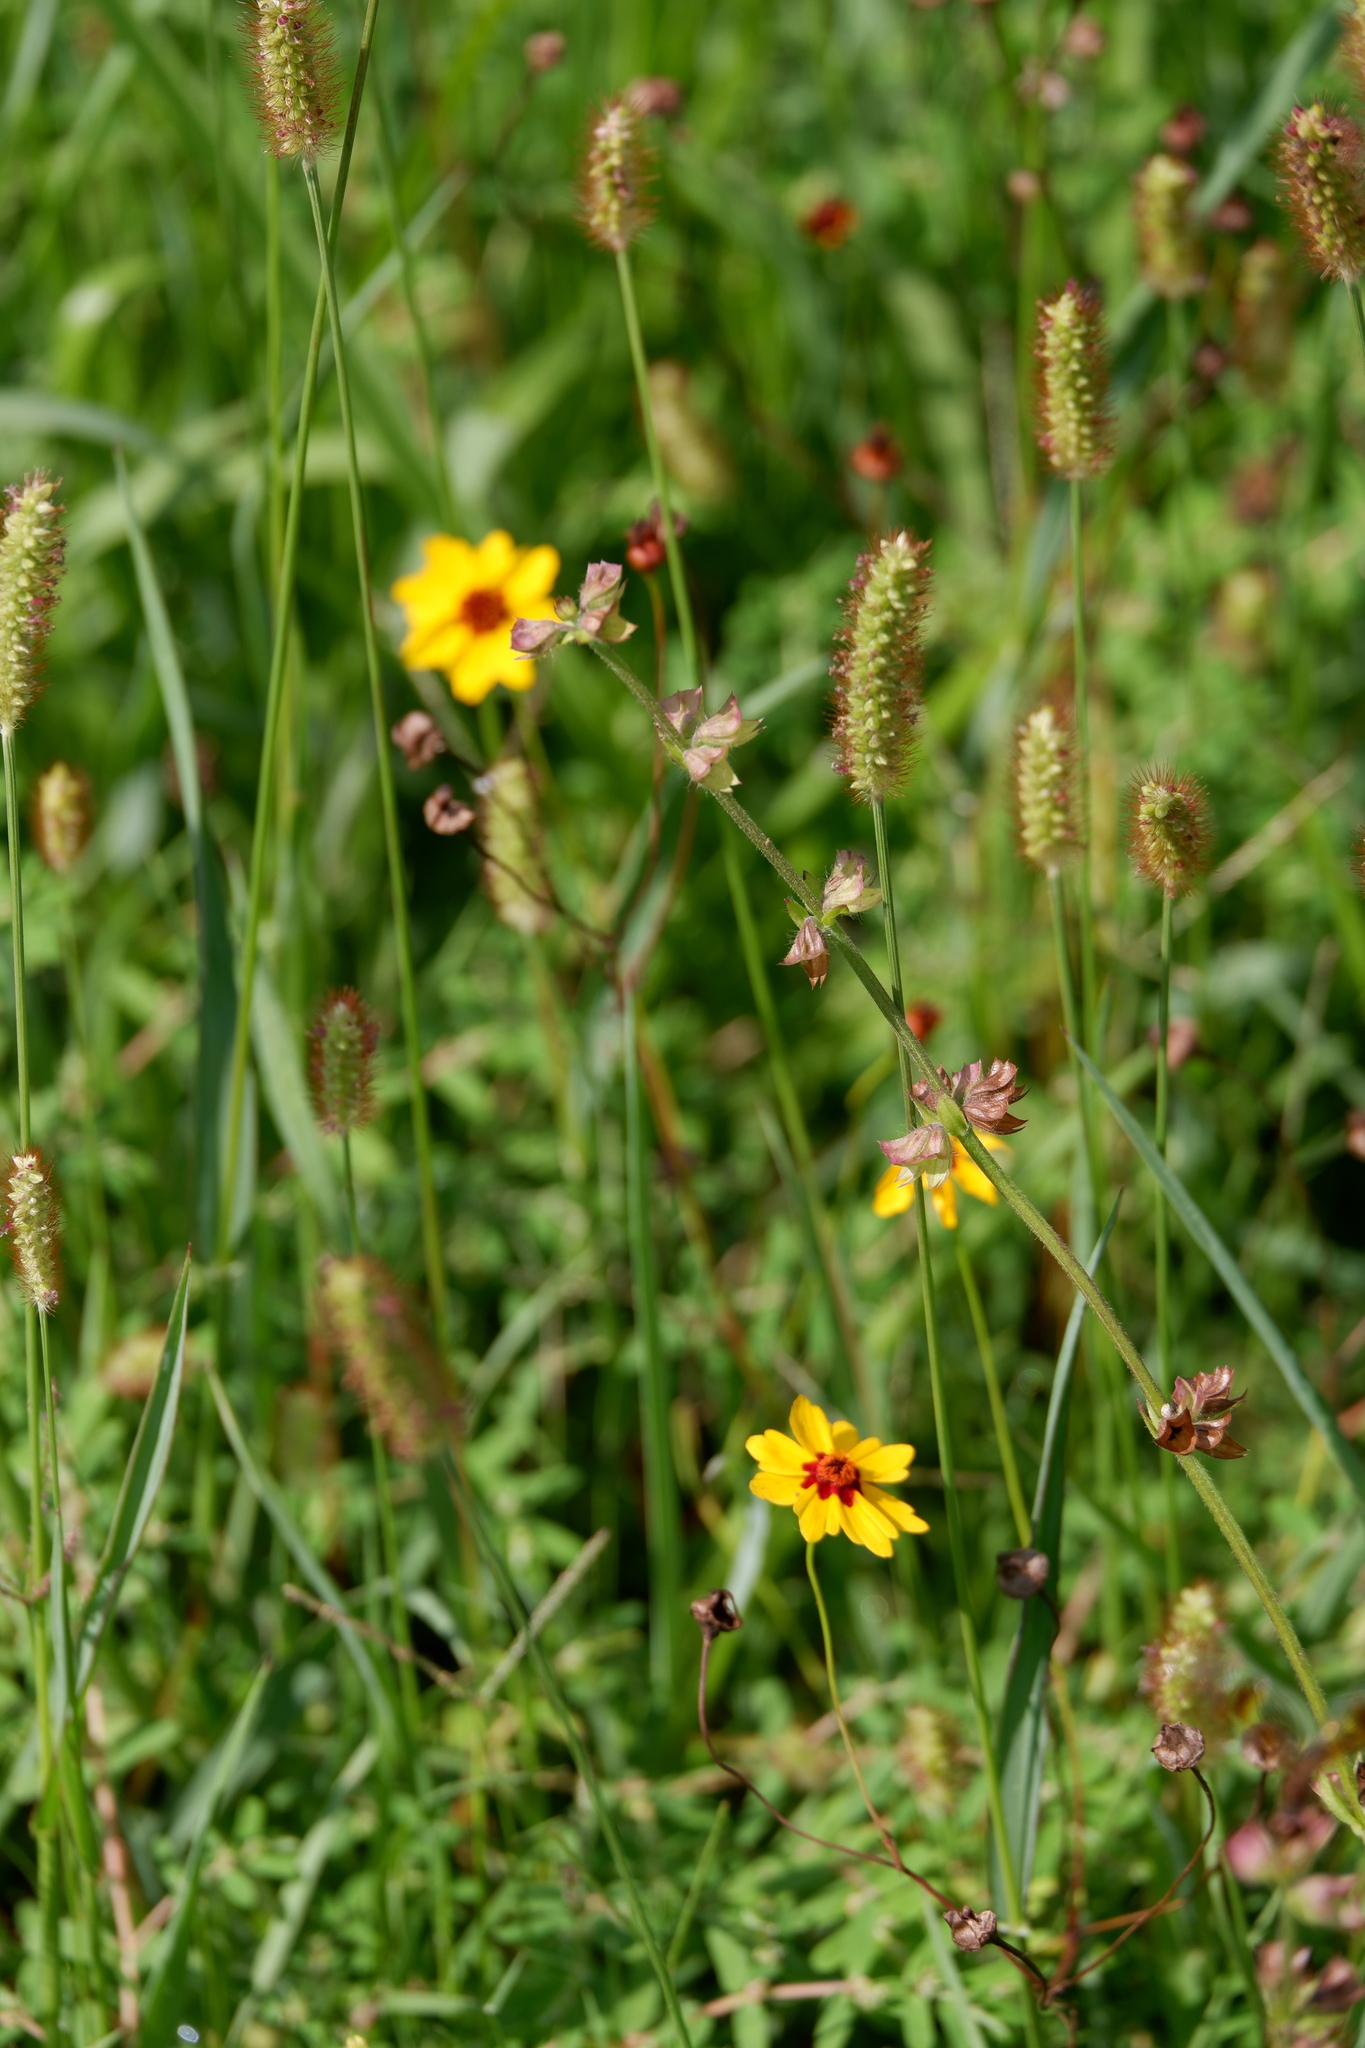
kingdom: Plantae
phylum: Tracheophyta
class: Magnoliopsida
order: Lamiales
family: Lamiaceae
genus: Salvia
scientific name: Salvia lyrata
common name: Cancerweed
